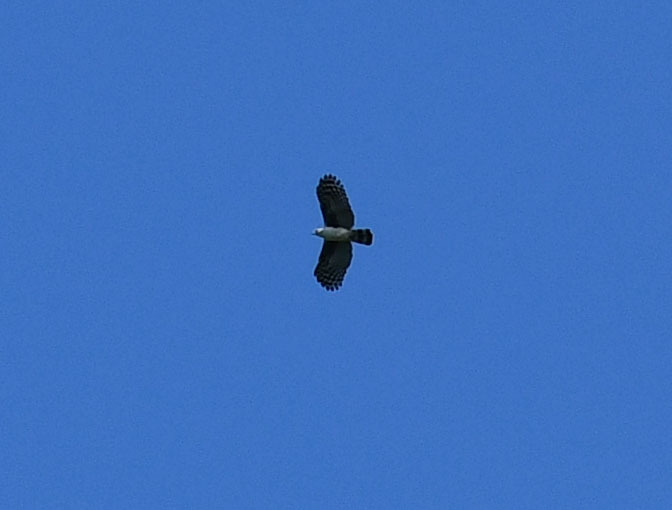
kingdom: Animalia
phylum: Chordata
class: Aves
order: Accipitriformes
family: Accipitridae
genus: Leptodon
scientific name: Leptodon cayanensis
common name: Gray-headed kite
